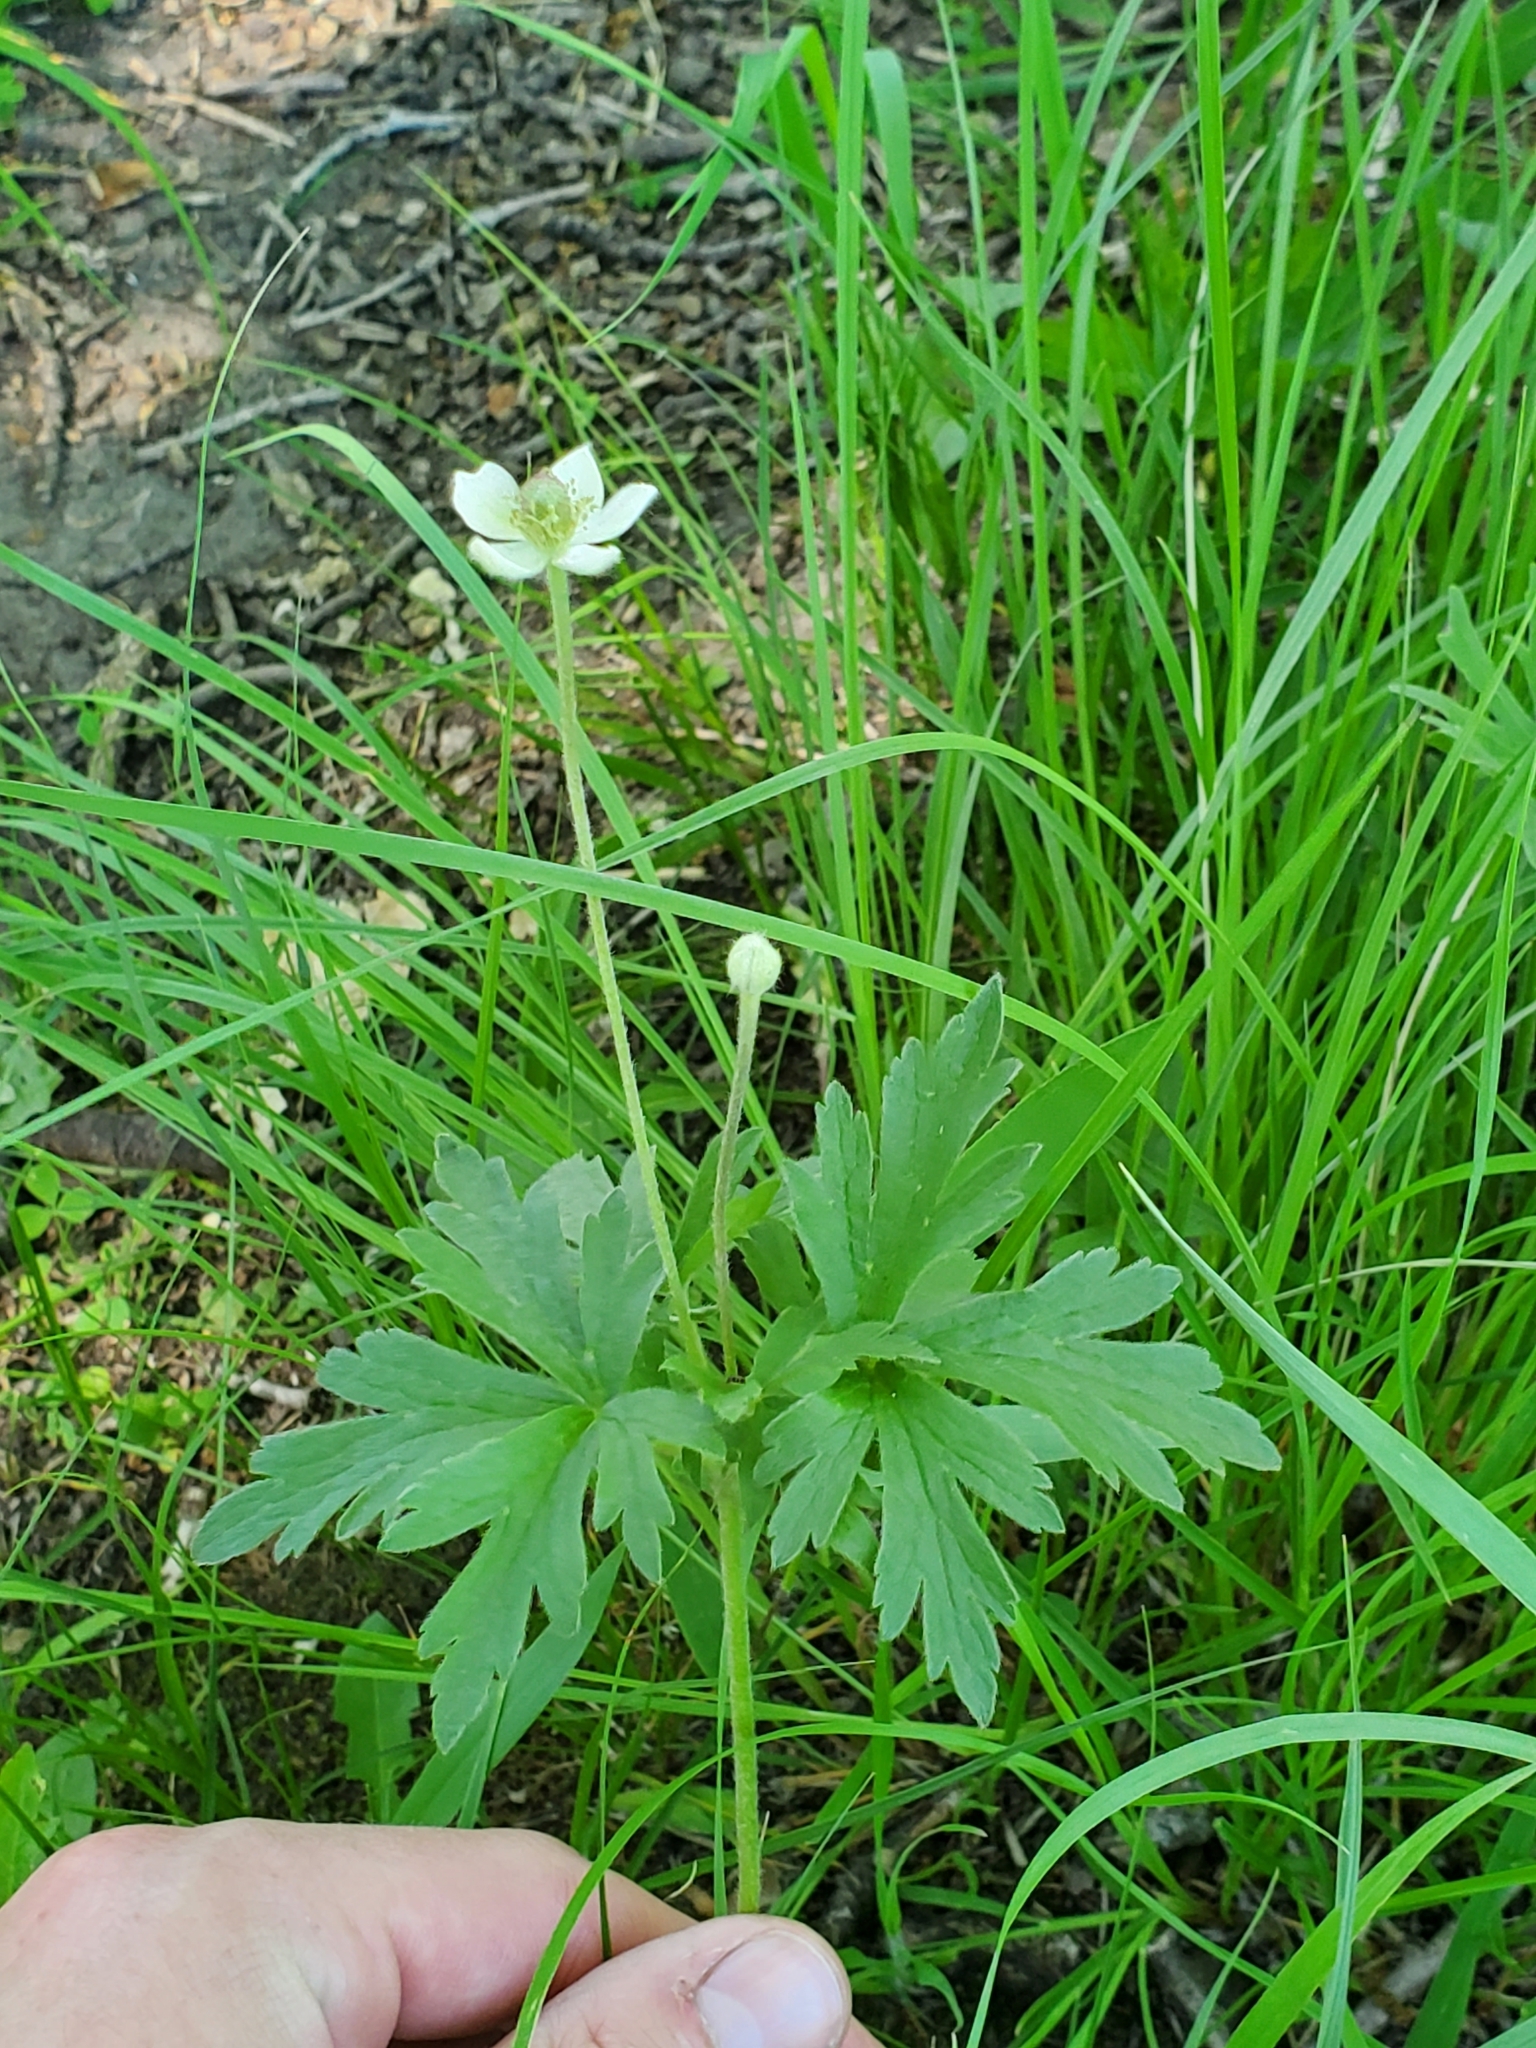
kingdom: Plantae
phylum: Tracheophyta
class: Magnoliopsida
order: Ranunculales
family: Ranunculaceae
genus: Anemone
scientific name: Anemone cylindrica
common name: Candle anemone
